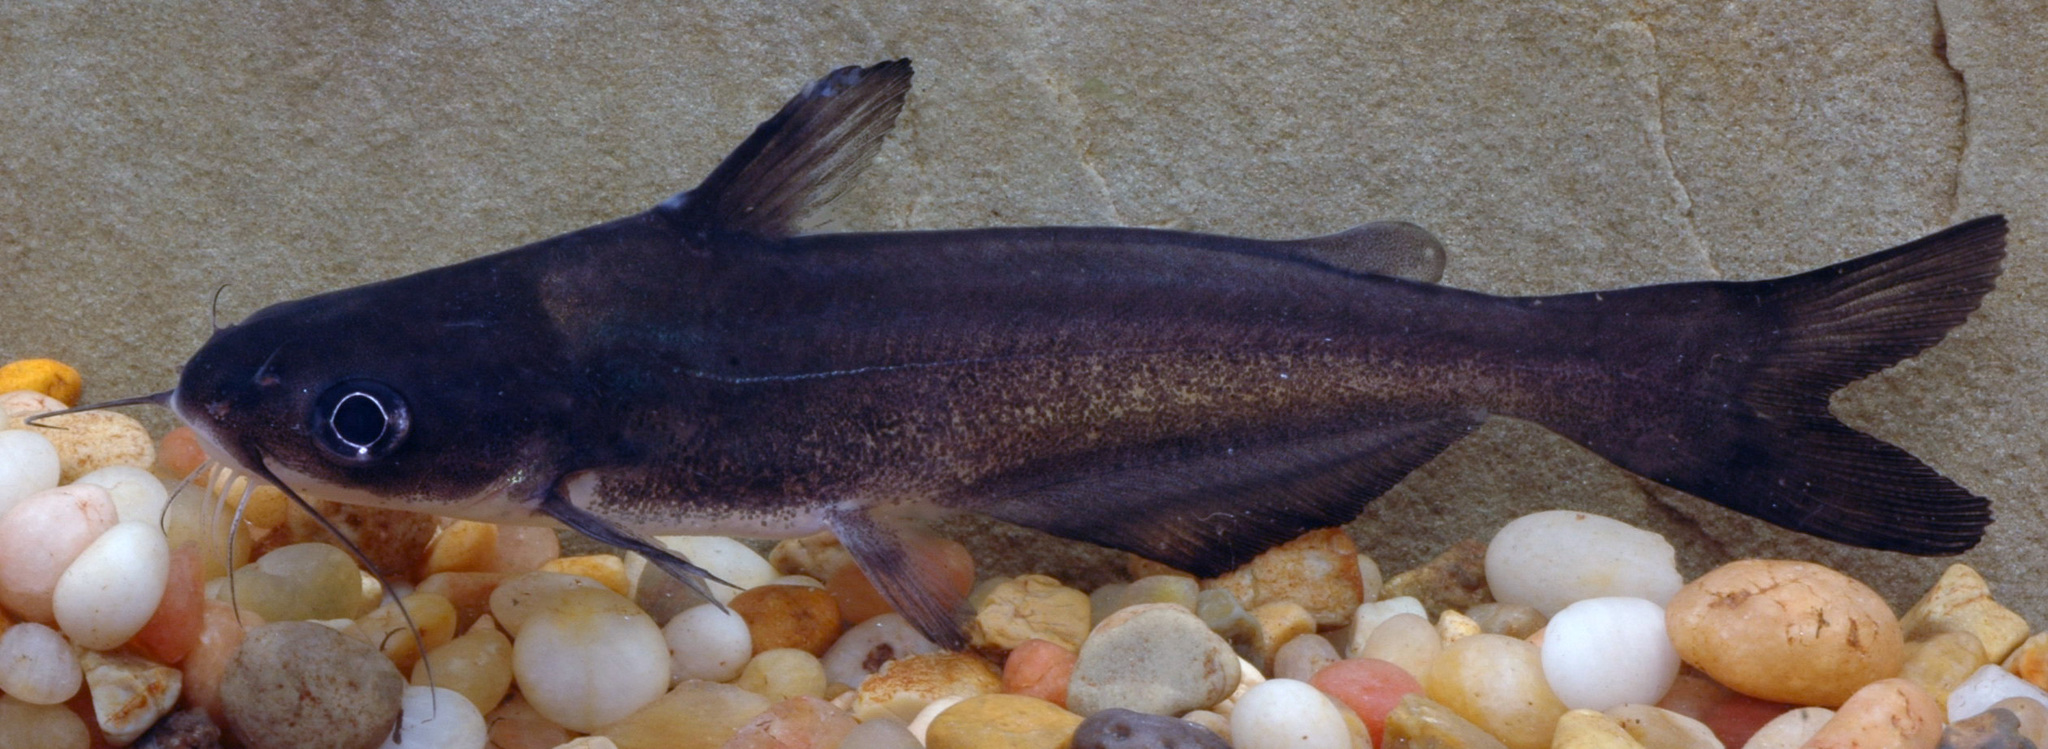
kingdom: Animalia
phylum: Chordata
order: Siluriformes
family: Ictaluridae
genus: Ictalurus
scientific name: Ictalurus furcatus
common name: Blue catfish
